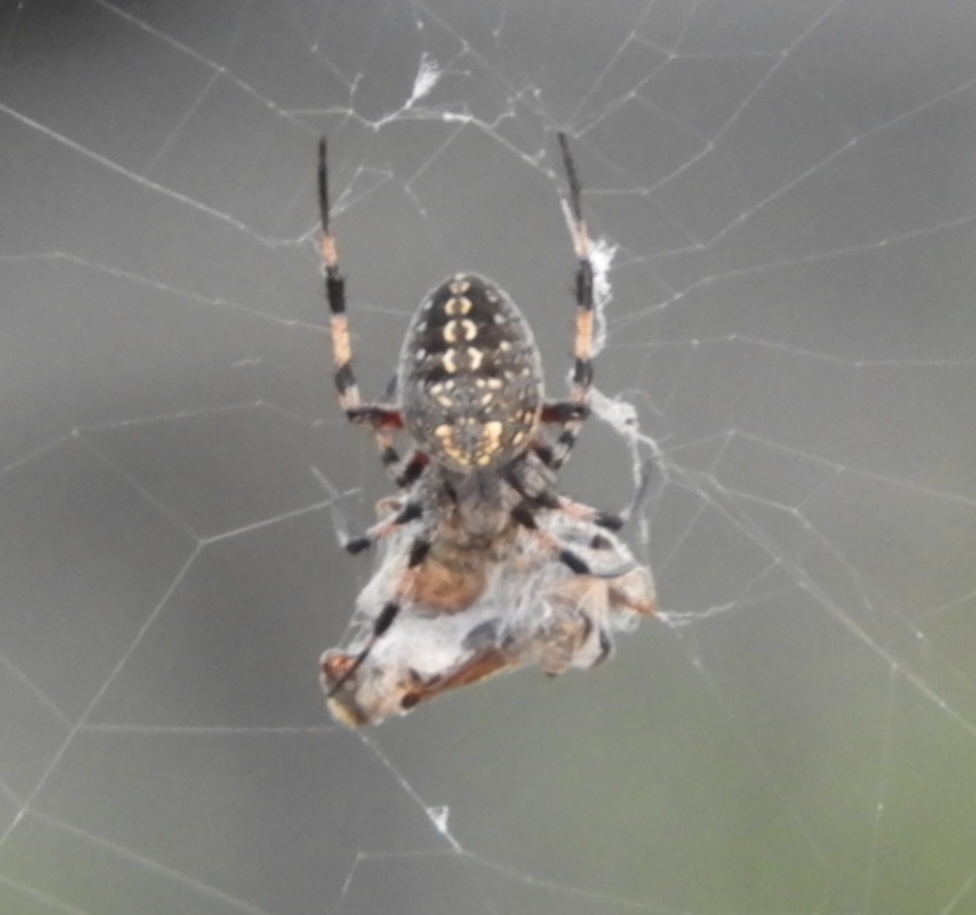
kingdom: Animalia
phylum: Arthropoda
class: Arachnida
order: Araneae
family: Araneidae
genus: Neoscona
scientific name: Neoscona oaxacensis
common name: Orb weavers
